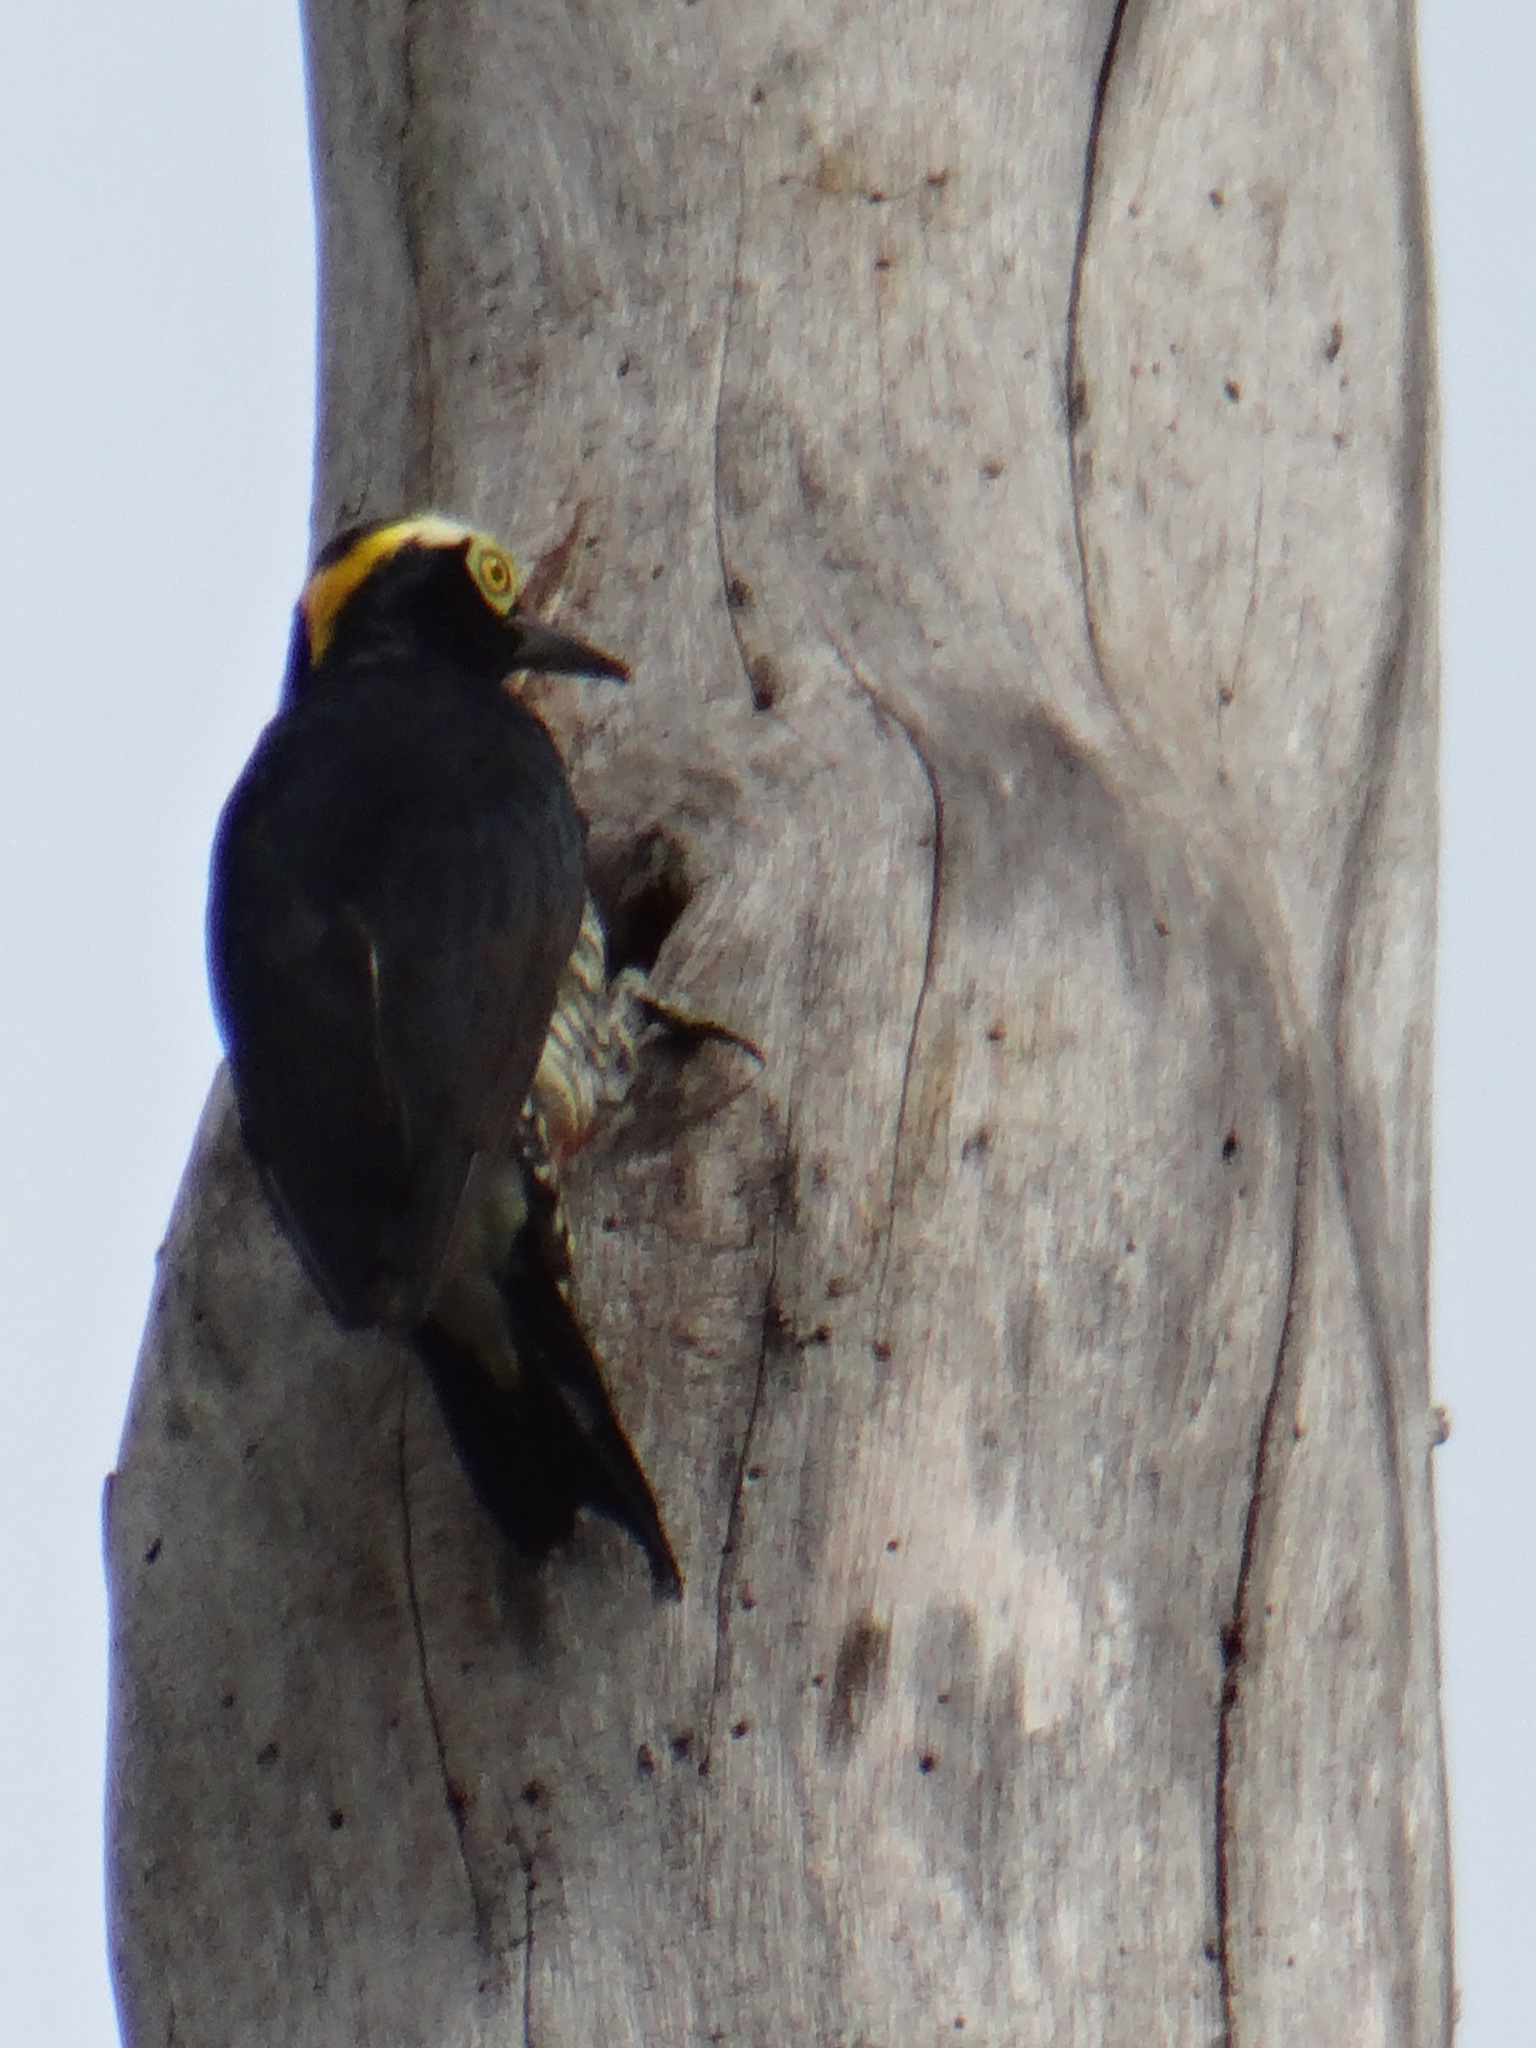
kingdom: Animalia
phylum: Chordata
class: Aves
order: Piciformes
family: Picidae
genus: Melanerpes
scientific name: Melanerpes cruentatus
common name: Yellow-tufted woodpecker
